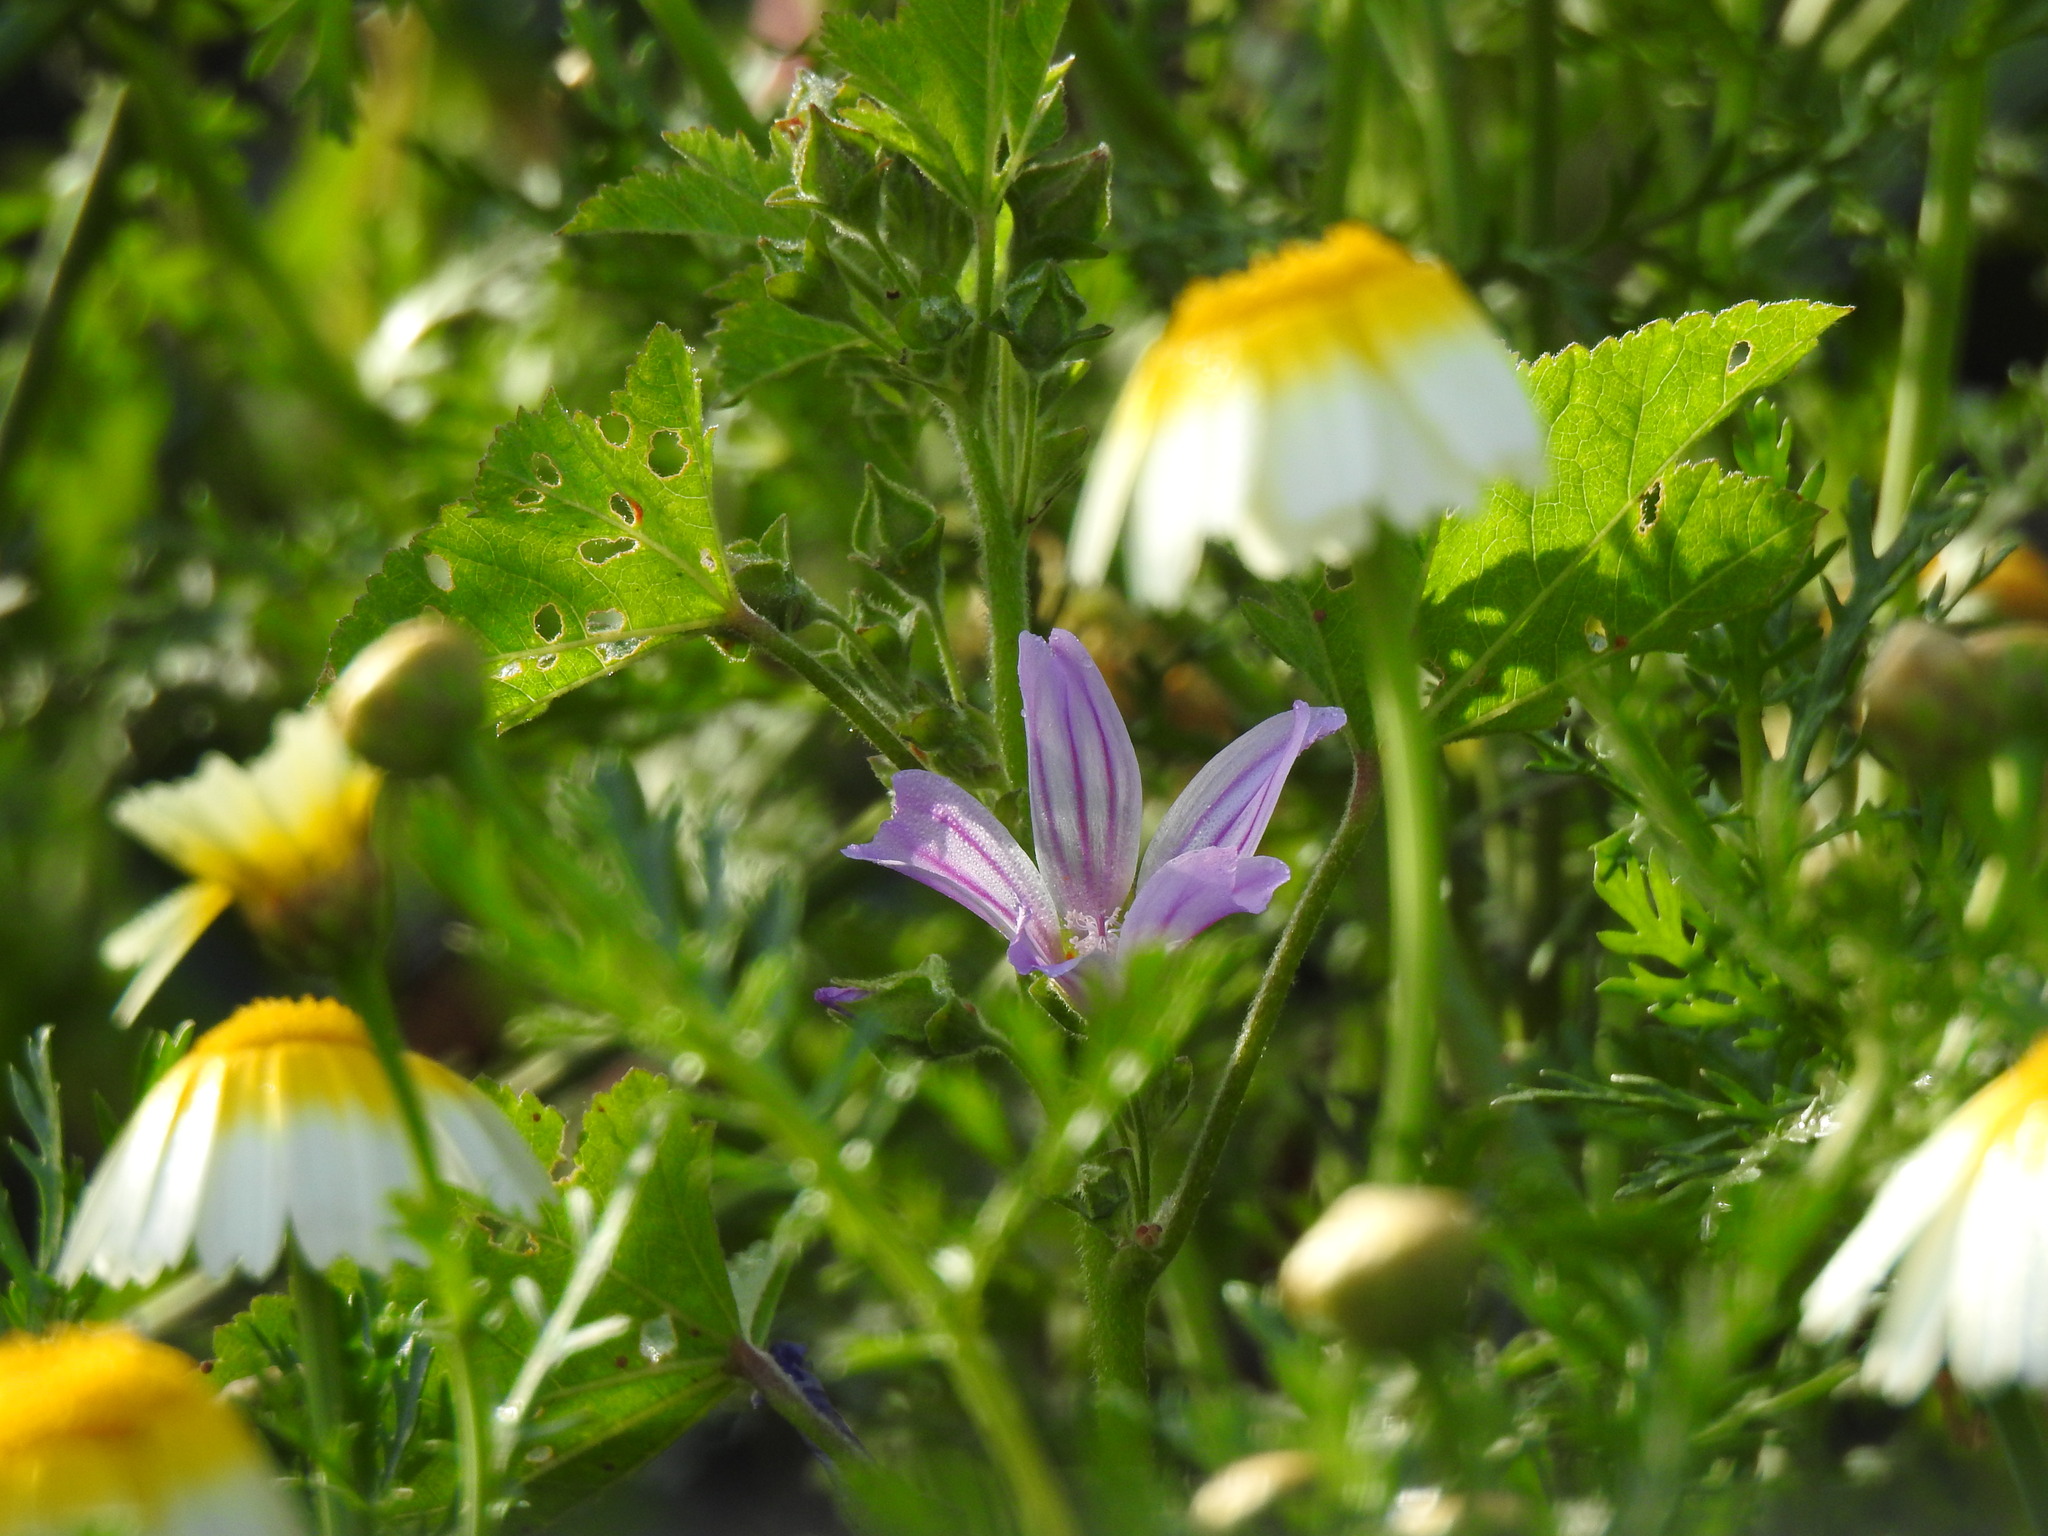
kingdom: Plantae
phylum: Tracheophyta
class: Magnoliopsida
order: Malvales
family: Malvaceae
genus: Malva
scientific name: Malva multiflora
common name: Cheeseweed
